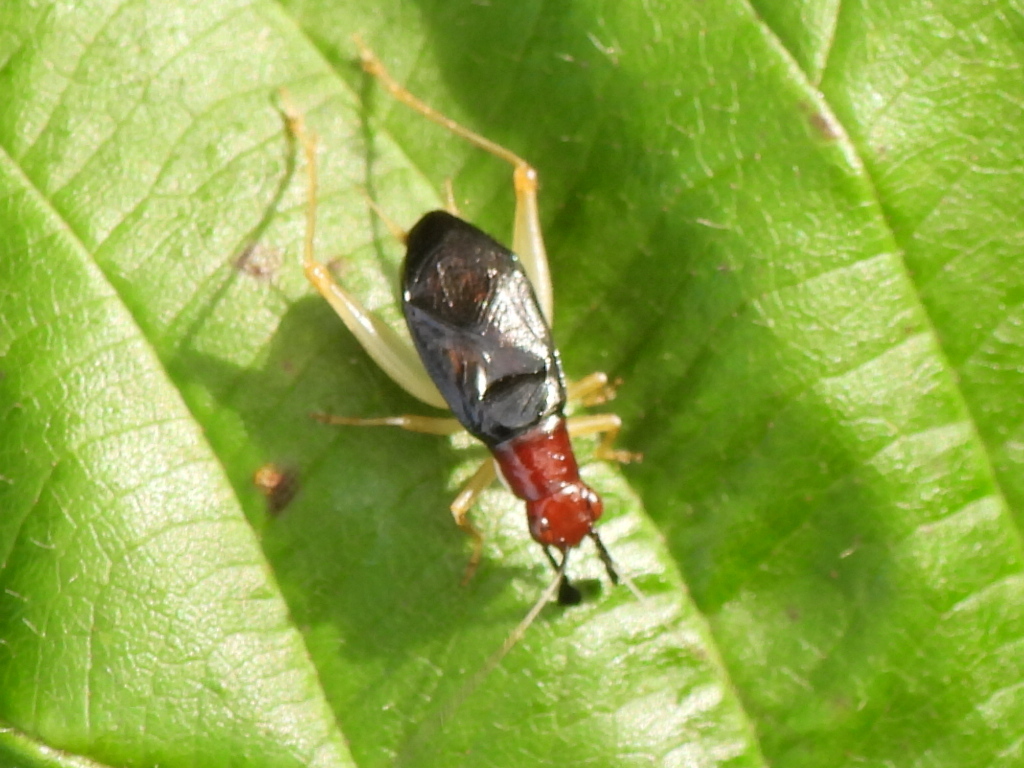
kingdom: Animalia
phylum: Arthropoda
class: Insecta
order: Orthoptera
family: Trigonidiidae
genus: Phyllopalpus
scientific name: Phyllopalpus pulchellus
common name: Handsome trig
